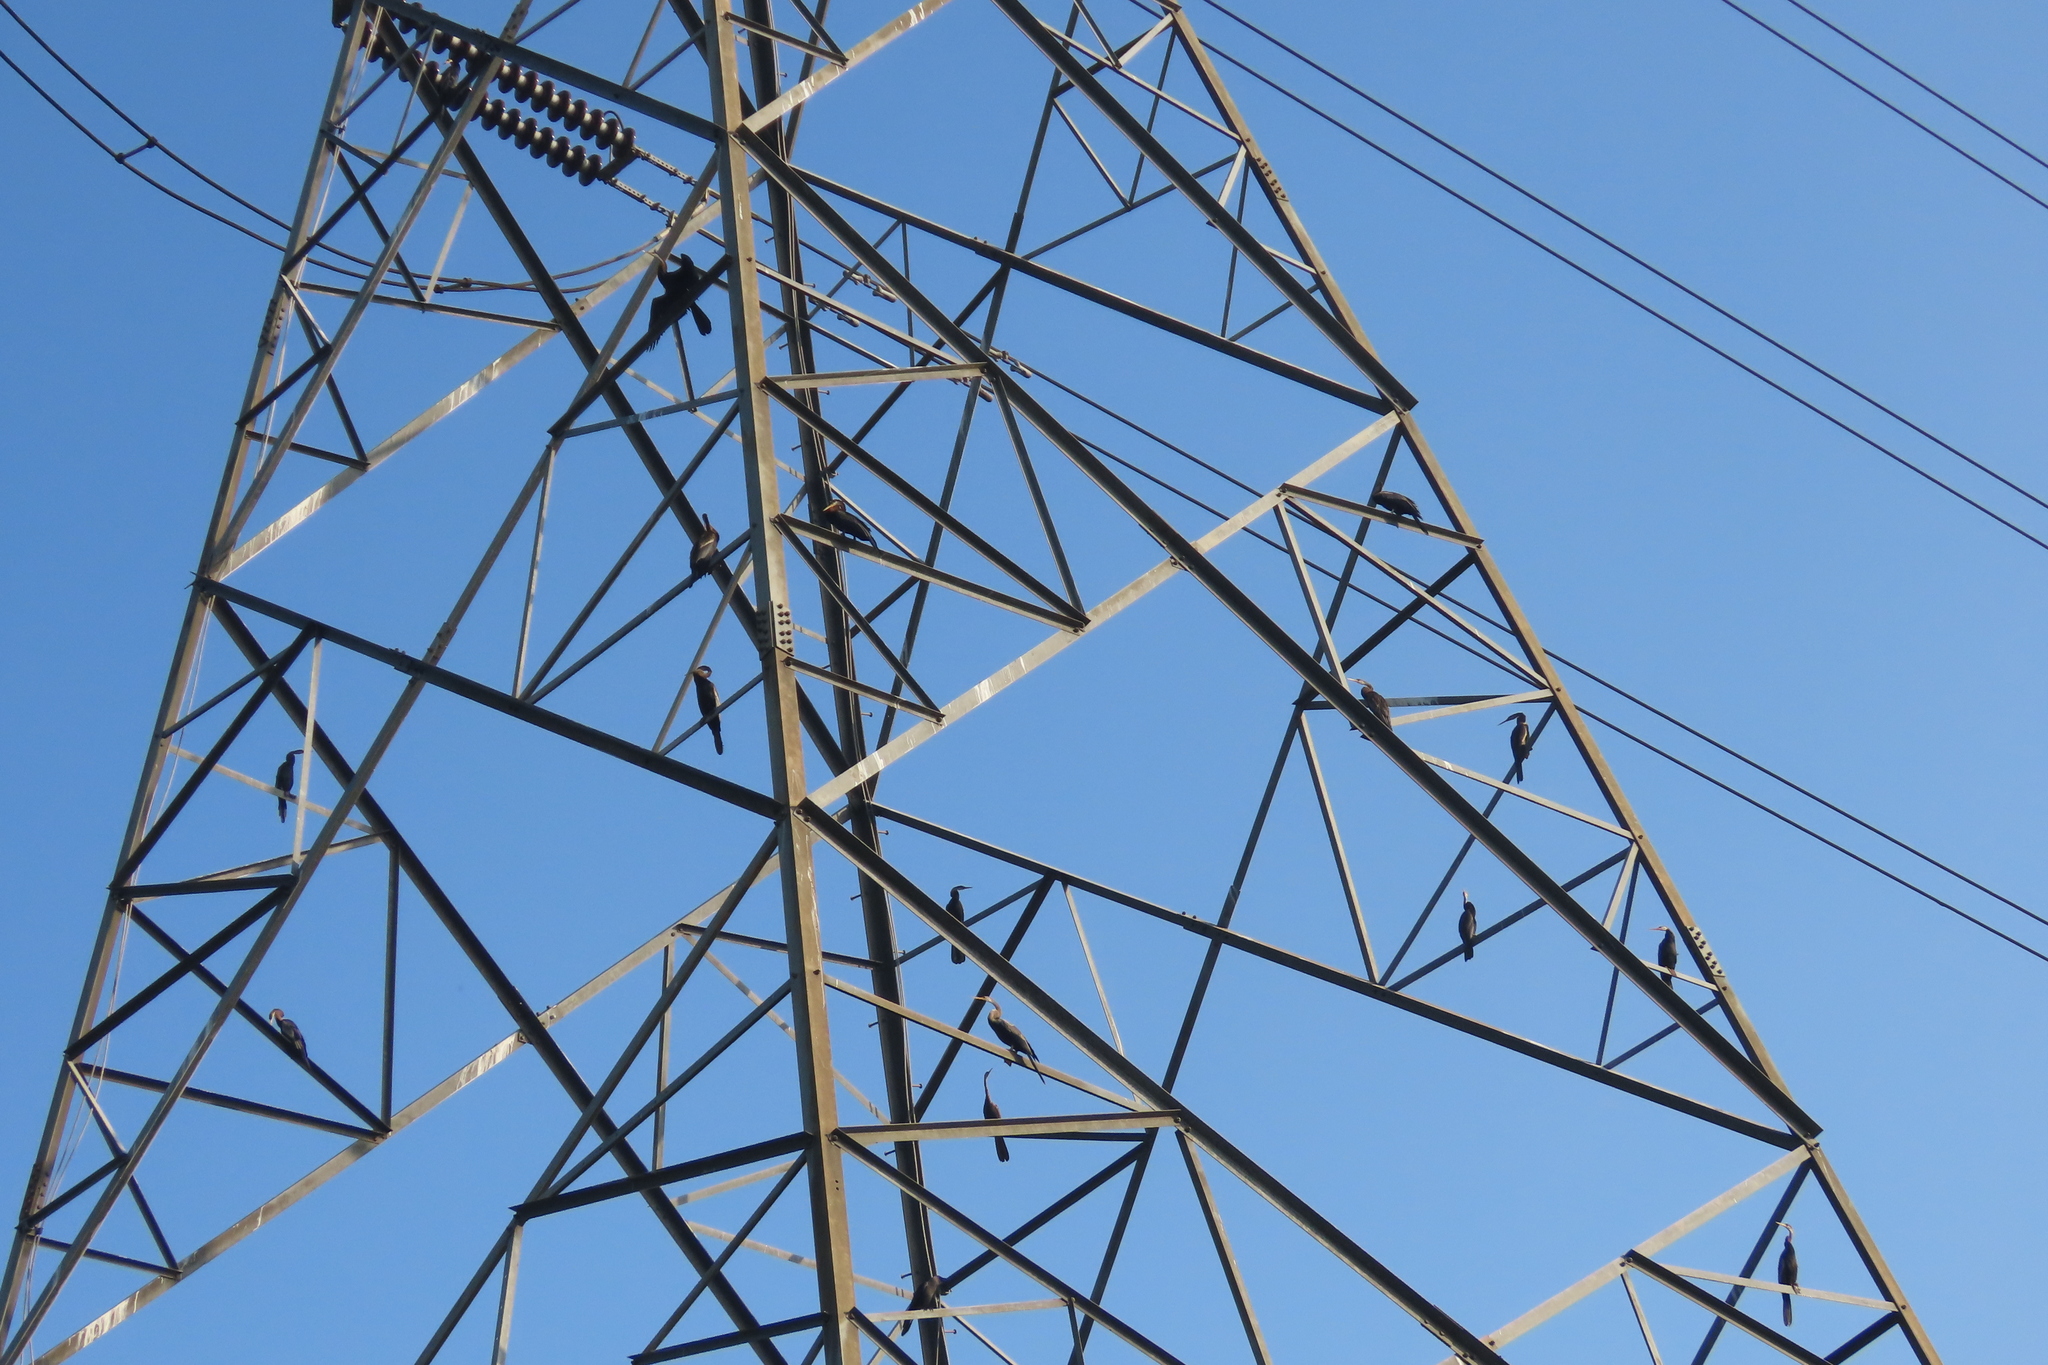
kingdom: Animalia
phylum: Chordata
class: Aves
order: Suliformes
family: Anhingidae
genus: Anhinga
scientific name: Anhinga melanogaster
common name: Oriental darter
